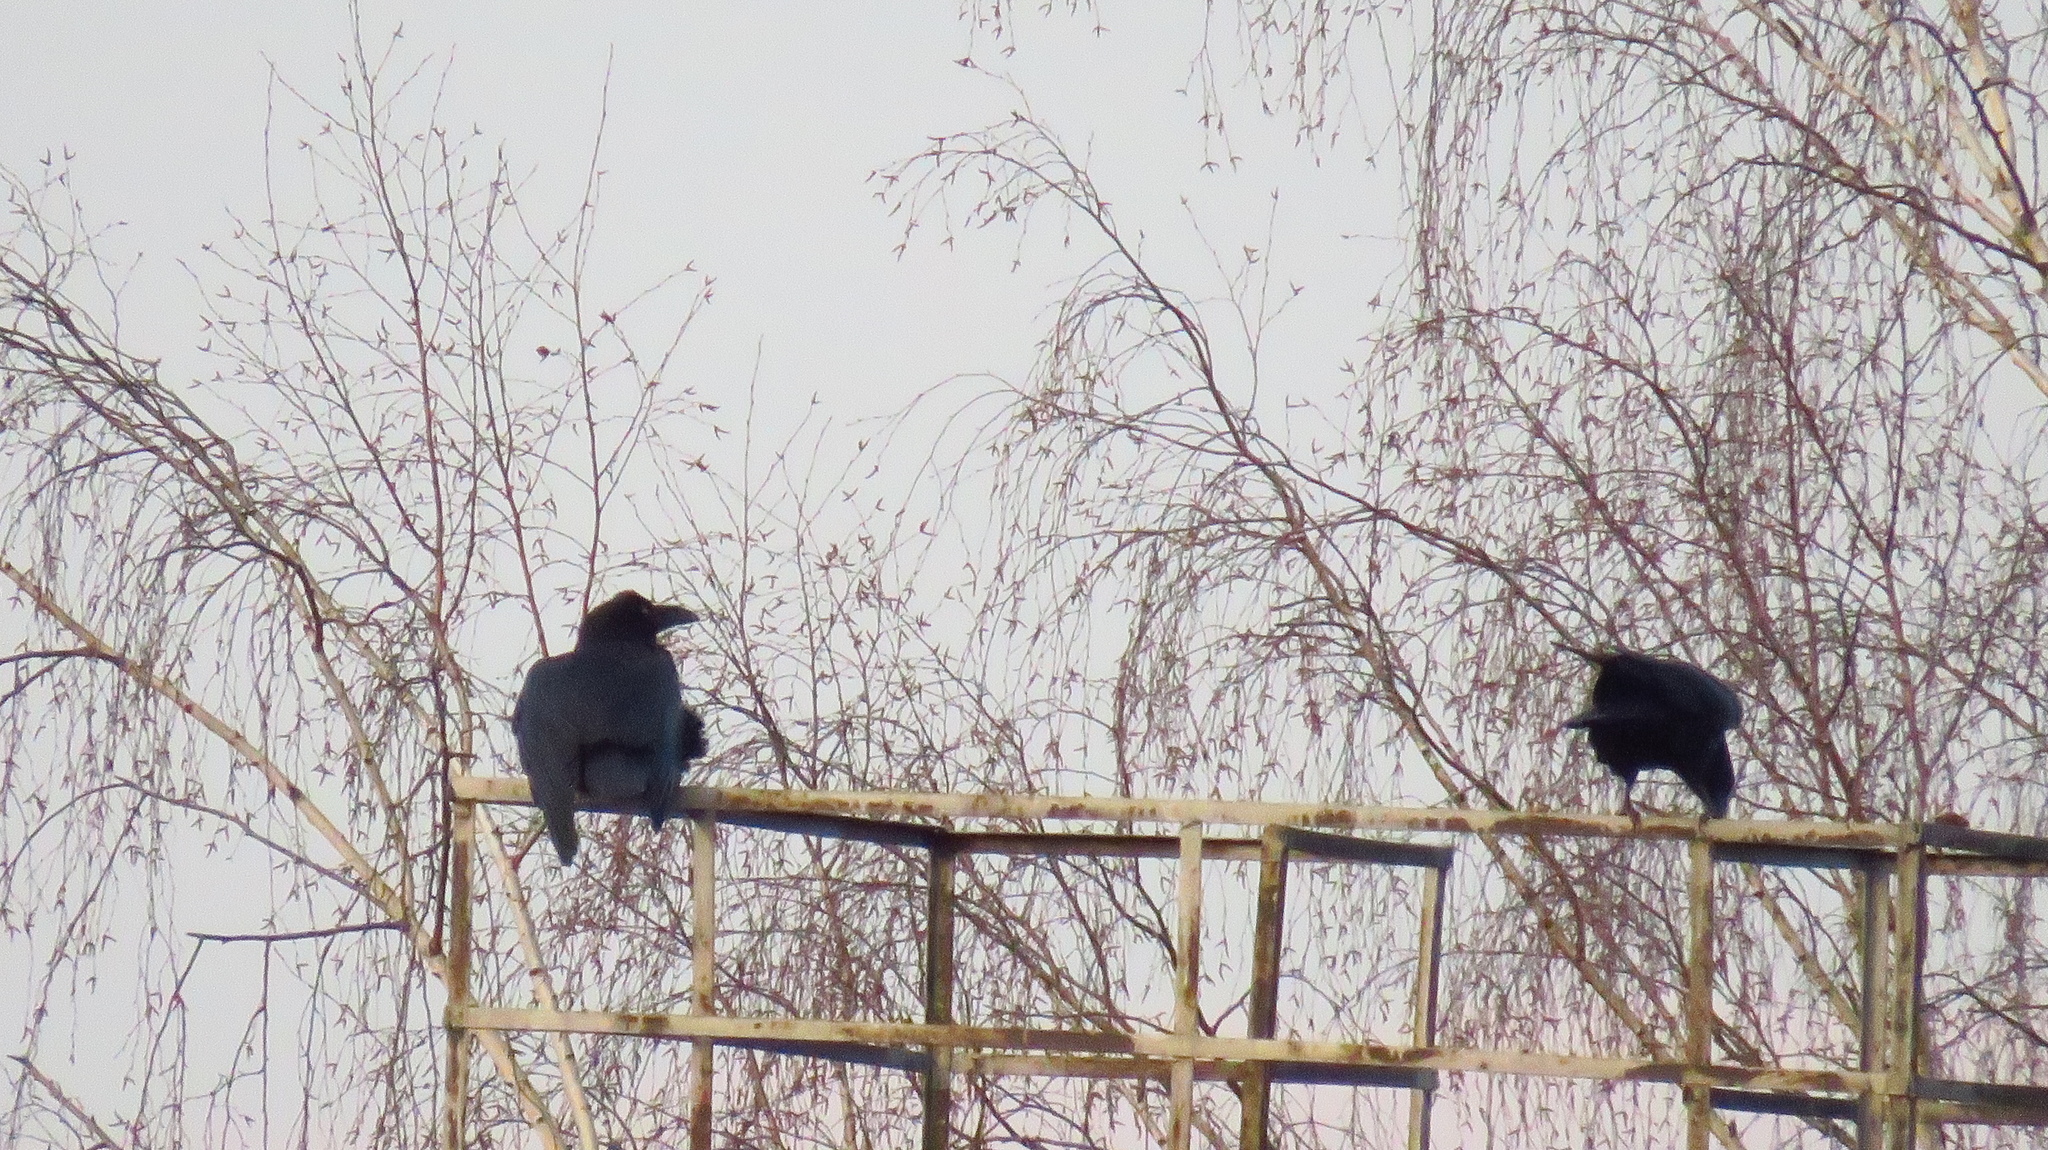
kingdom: Animalia
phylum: Chordata
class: Aves
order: Passeriformes
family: Corvidae
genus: Corvus
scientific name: Corvus corax
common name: Common raven
